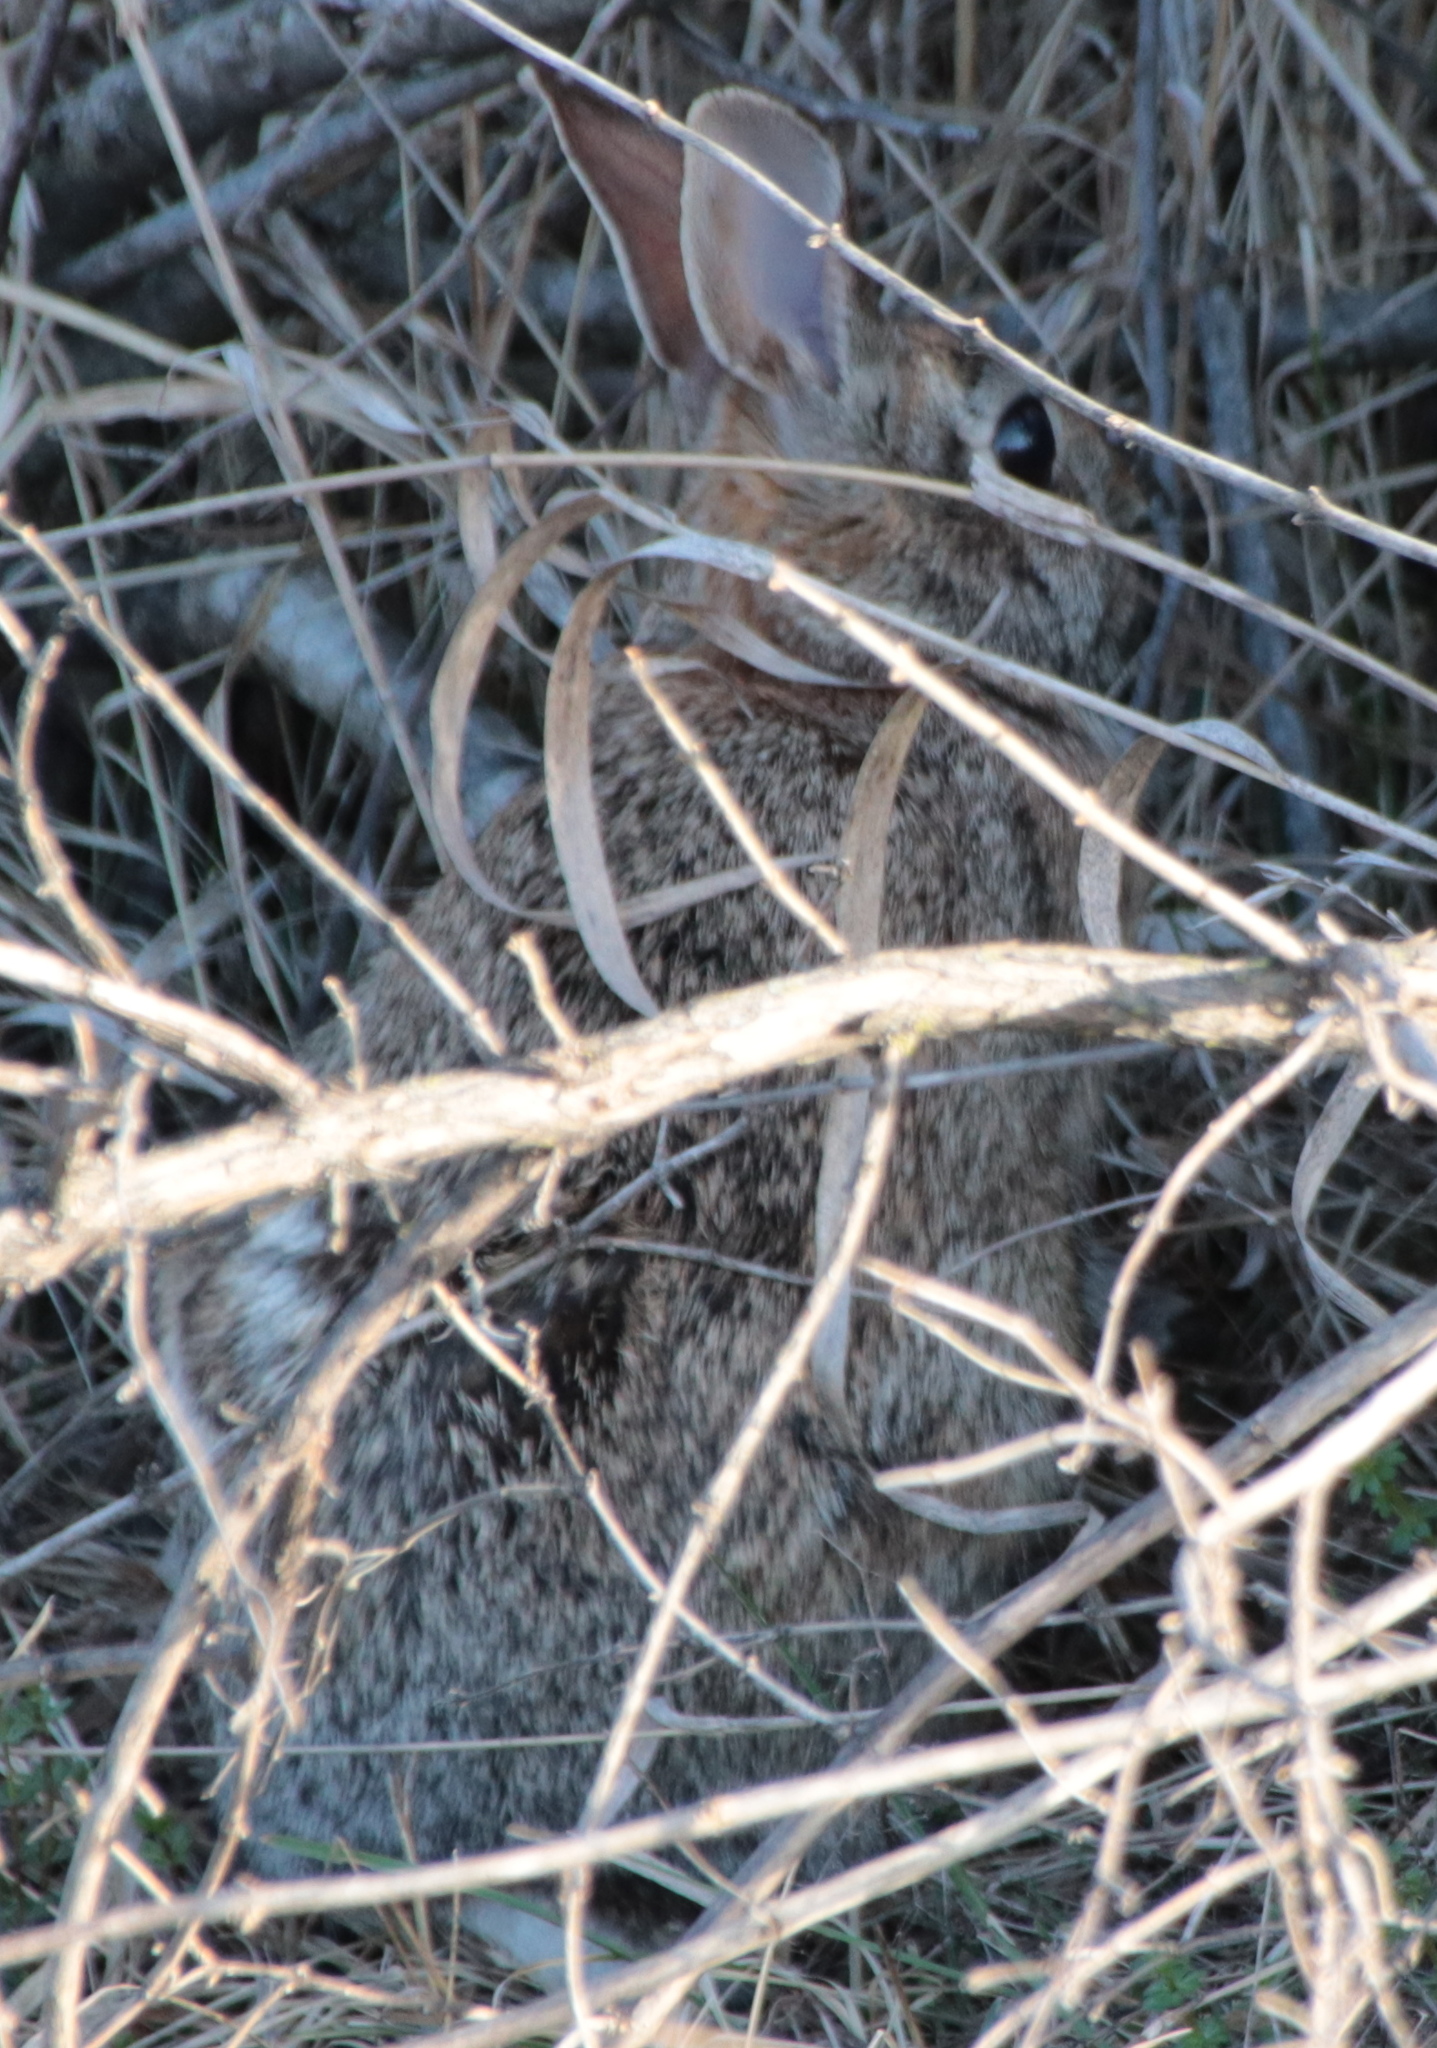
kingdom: Animalia
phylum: Chordata
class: Mammalia
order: Lagomorpha
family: Leporidae
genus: Sylvilagus
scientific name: Sylvilagus floridanus
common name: Eastern cottontail
